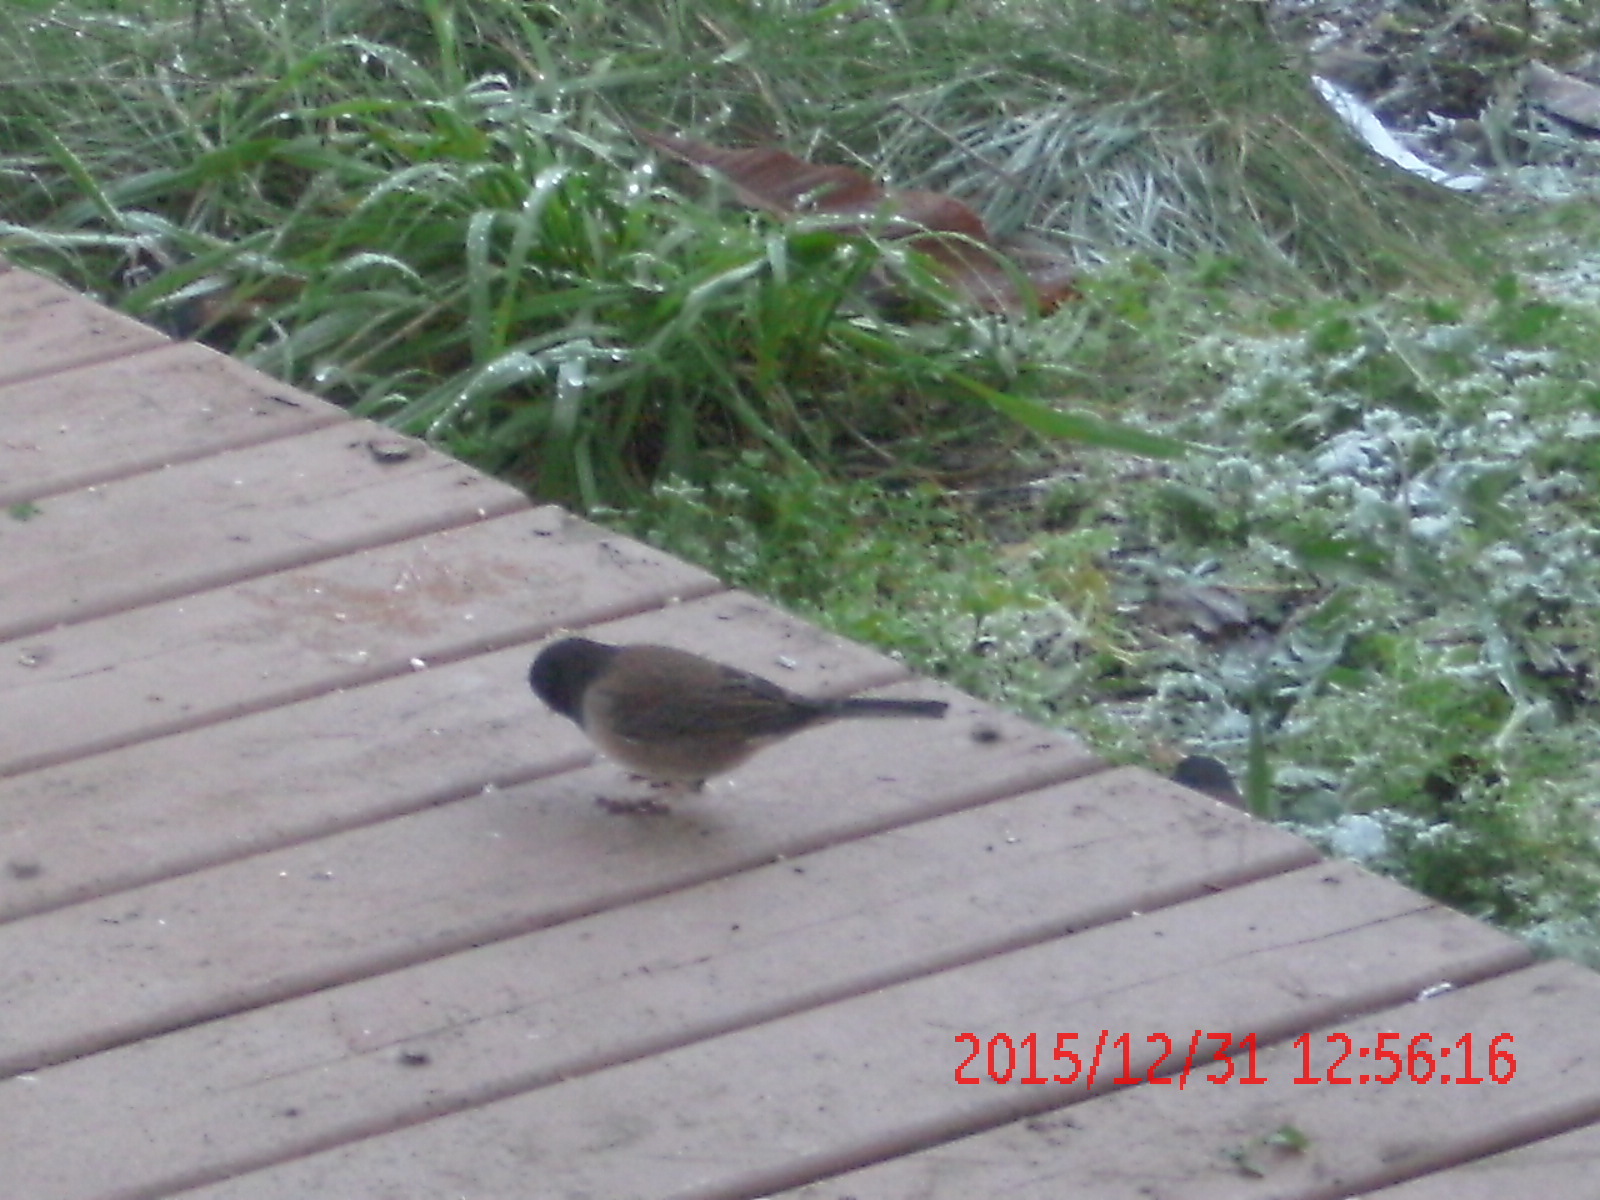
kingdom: Animalia
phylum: Chordata
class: Aves
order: Passeriformes
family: Passerellidae
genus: Junco
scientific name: Junco hyemalis
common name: Dark-eyed junco
